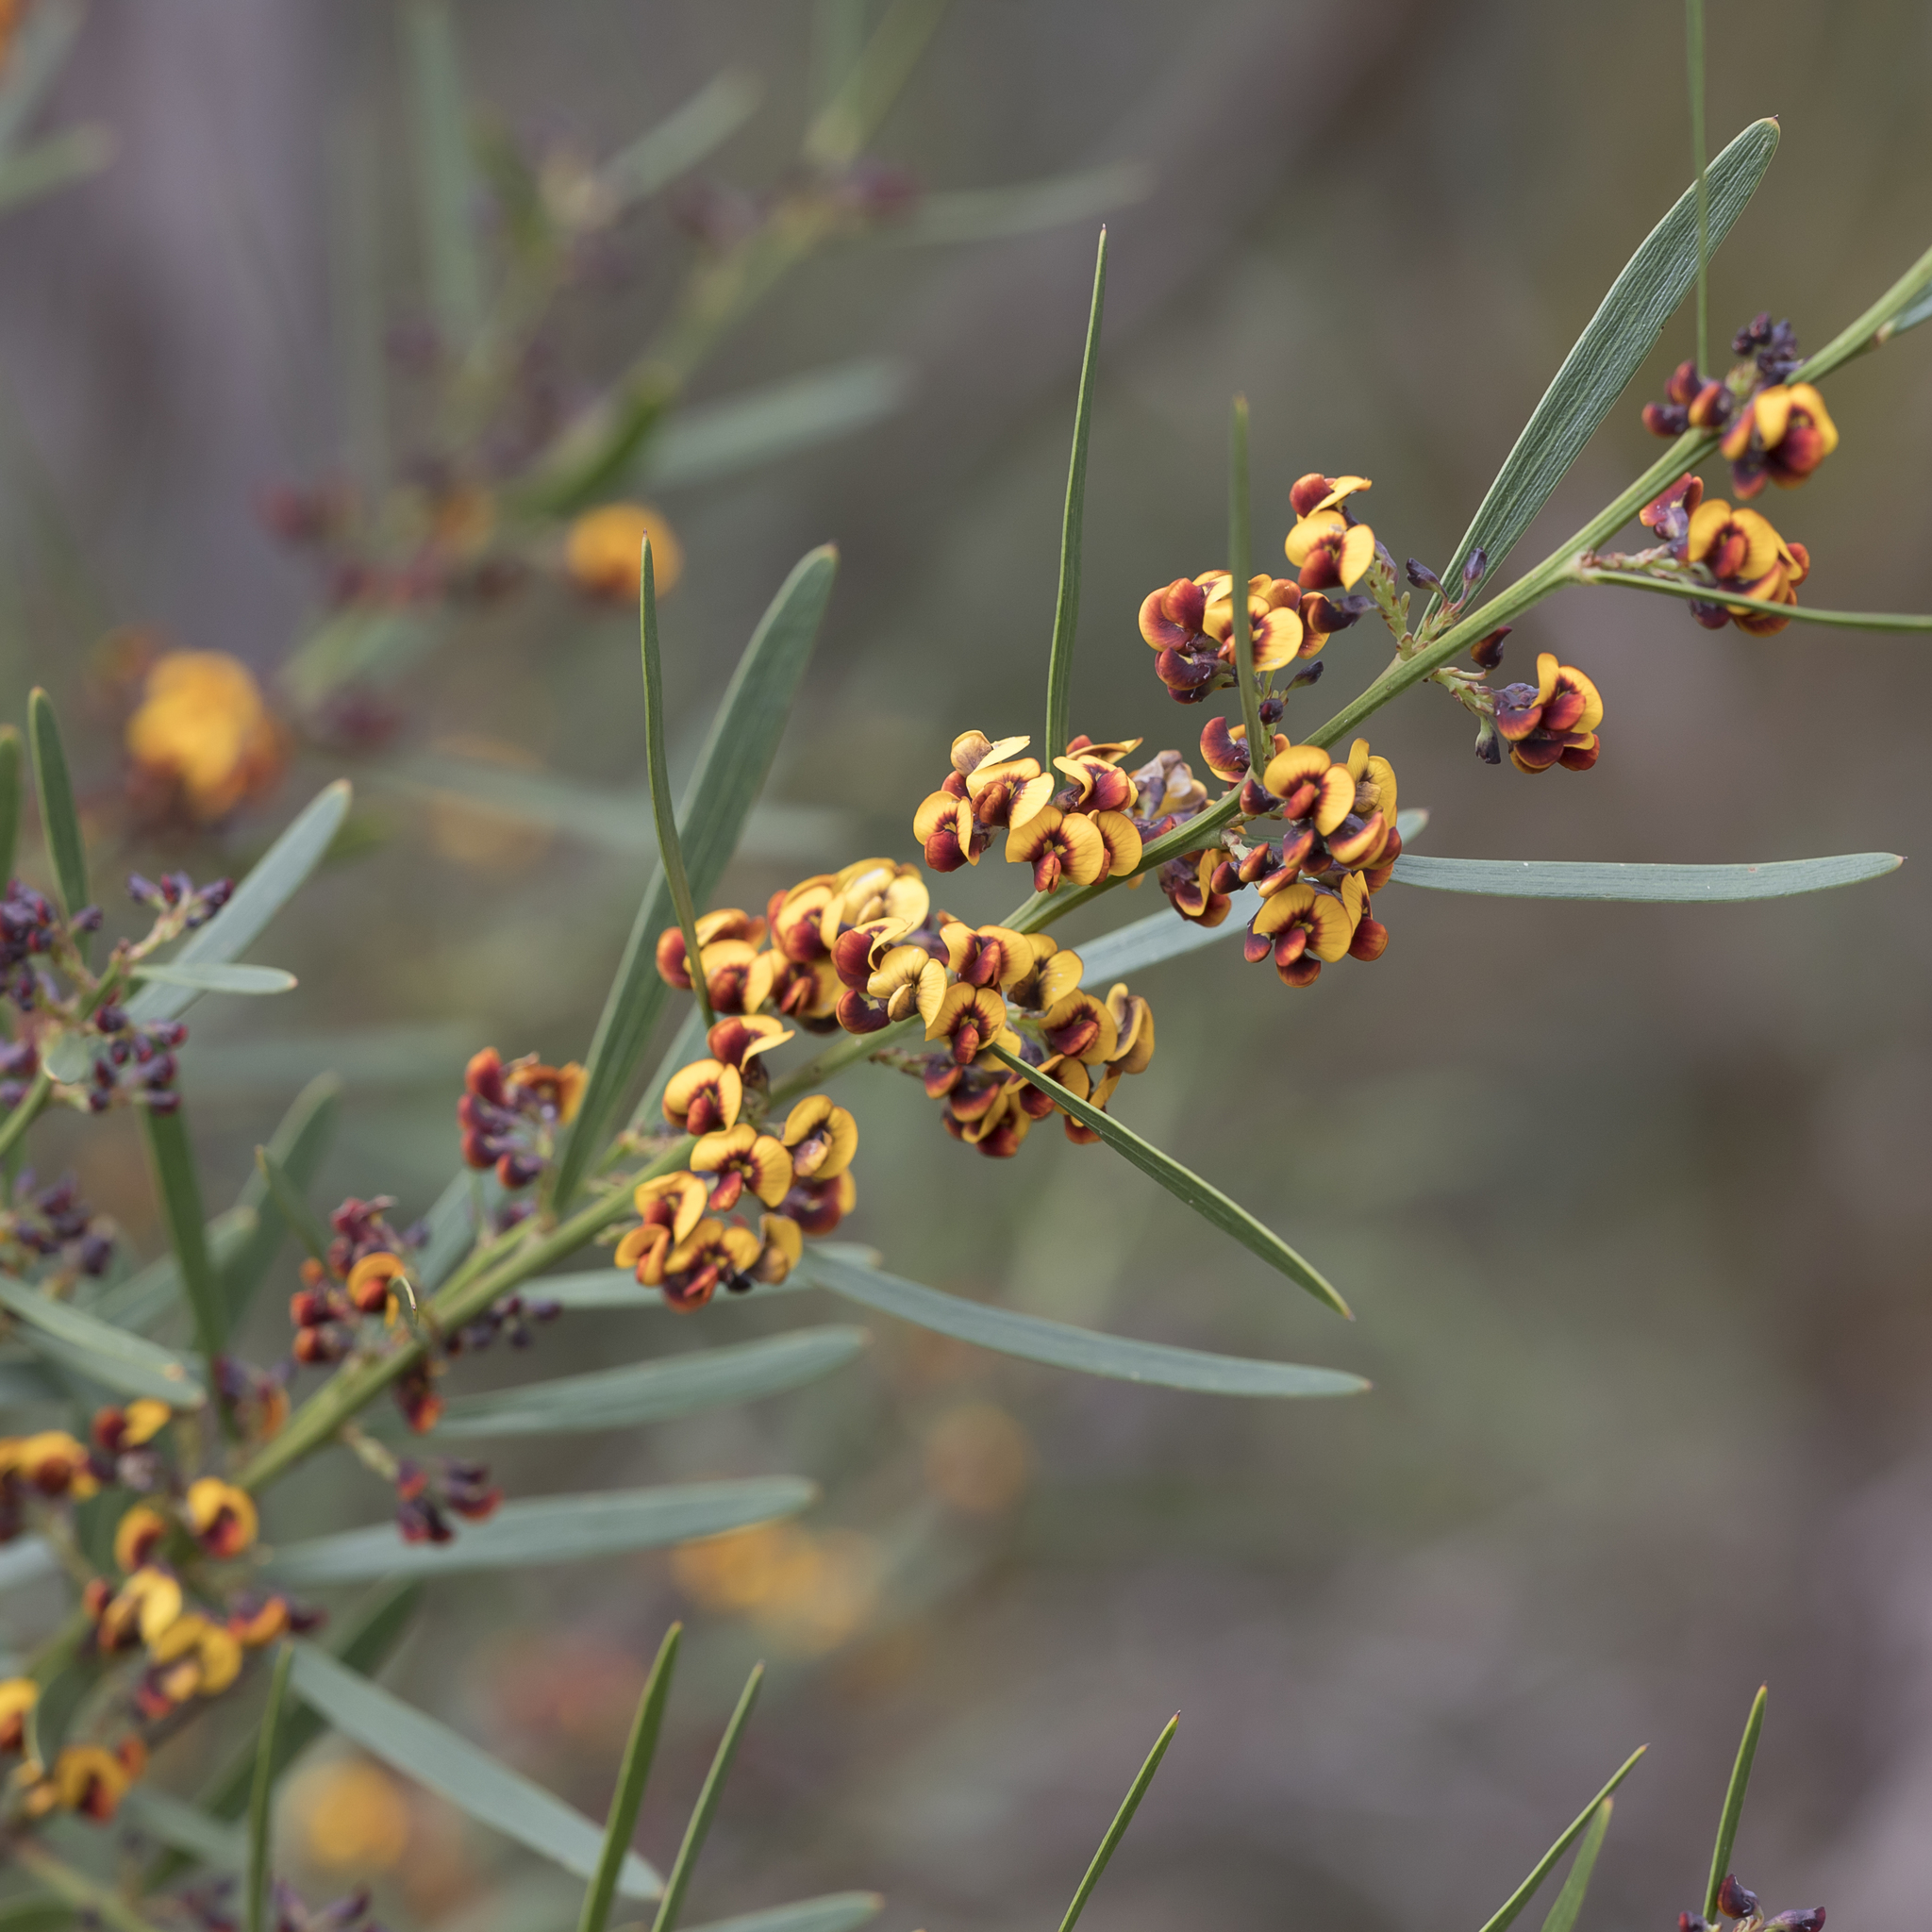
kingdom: Plantae
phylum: Tracheophyta
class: Magnoliopsida
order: Fabales
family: Fabaceae
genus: Daviesia
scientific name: Daviesia leptophylla
